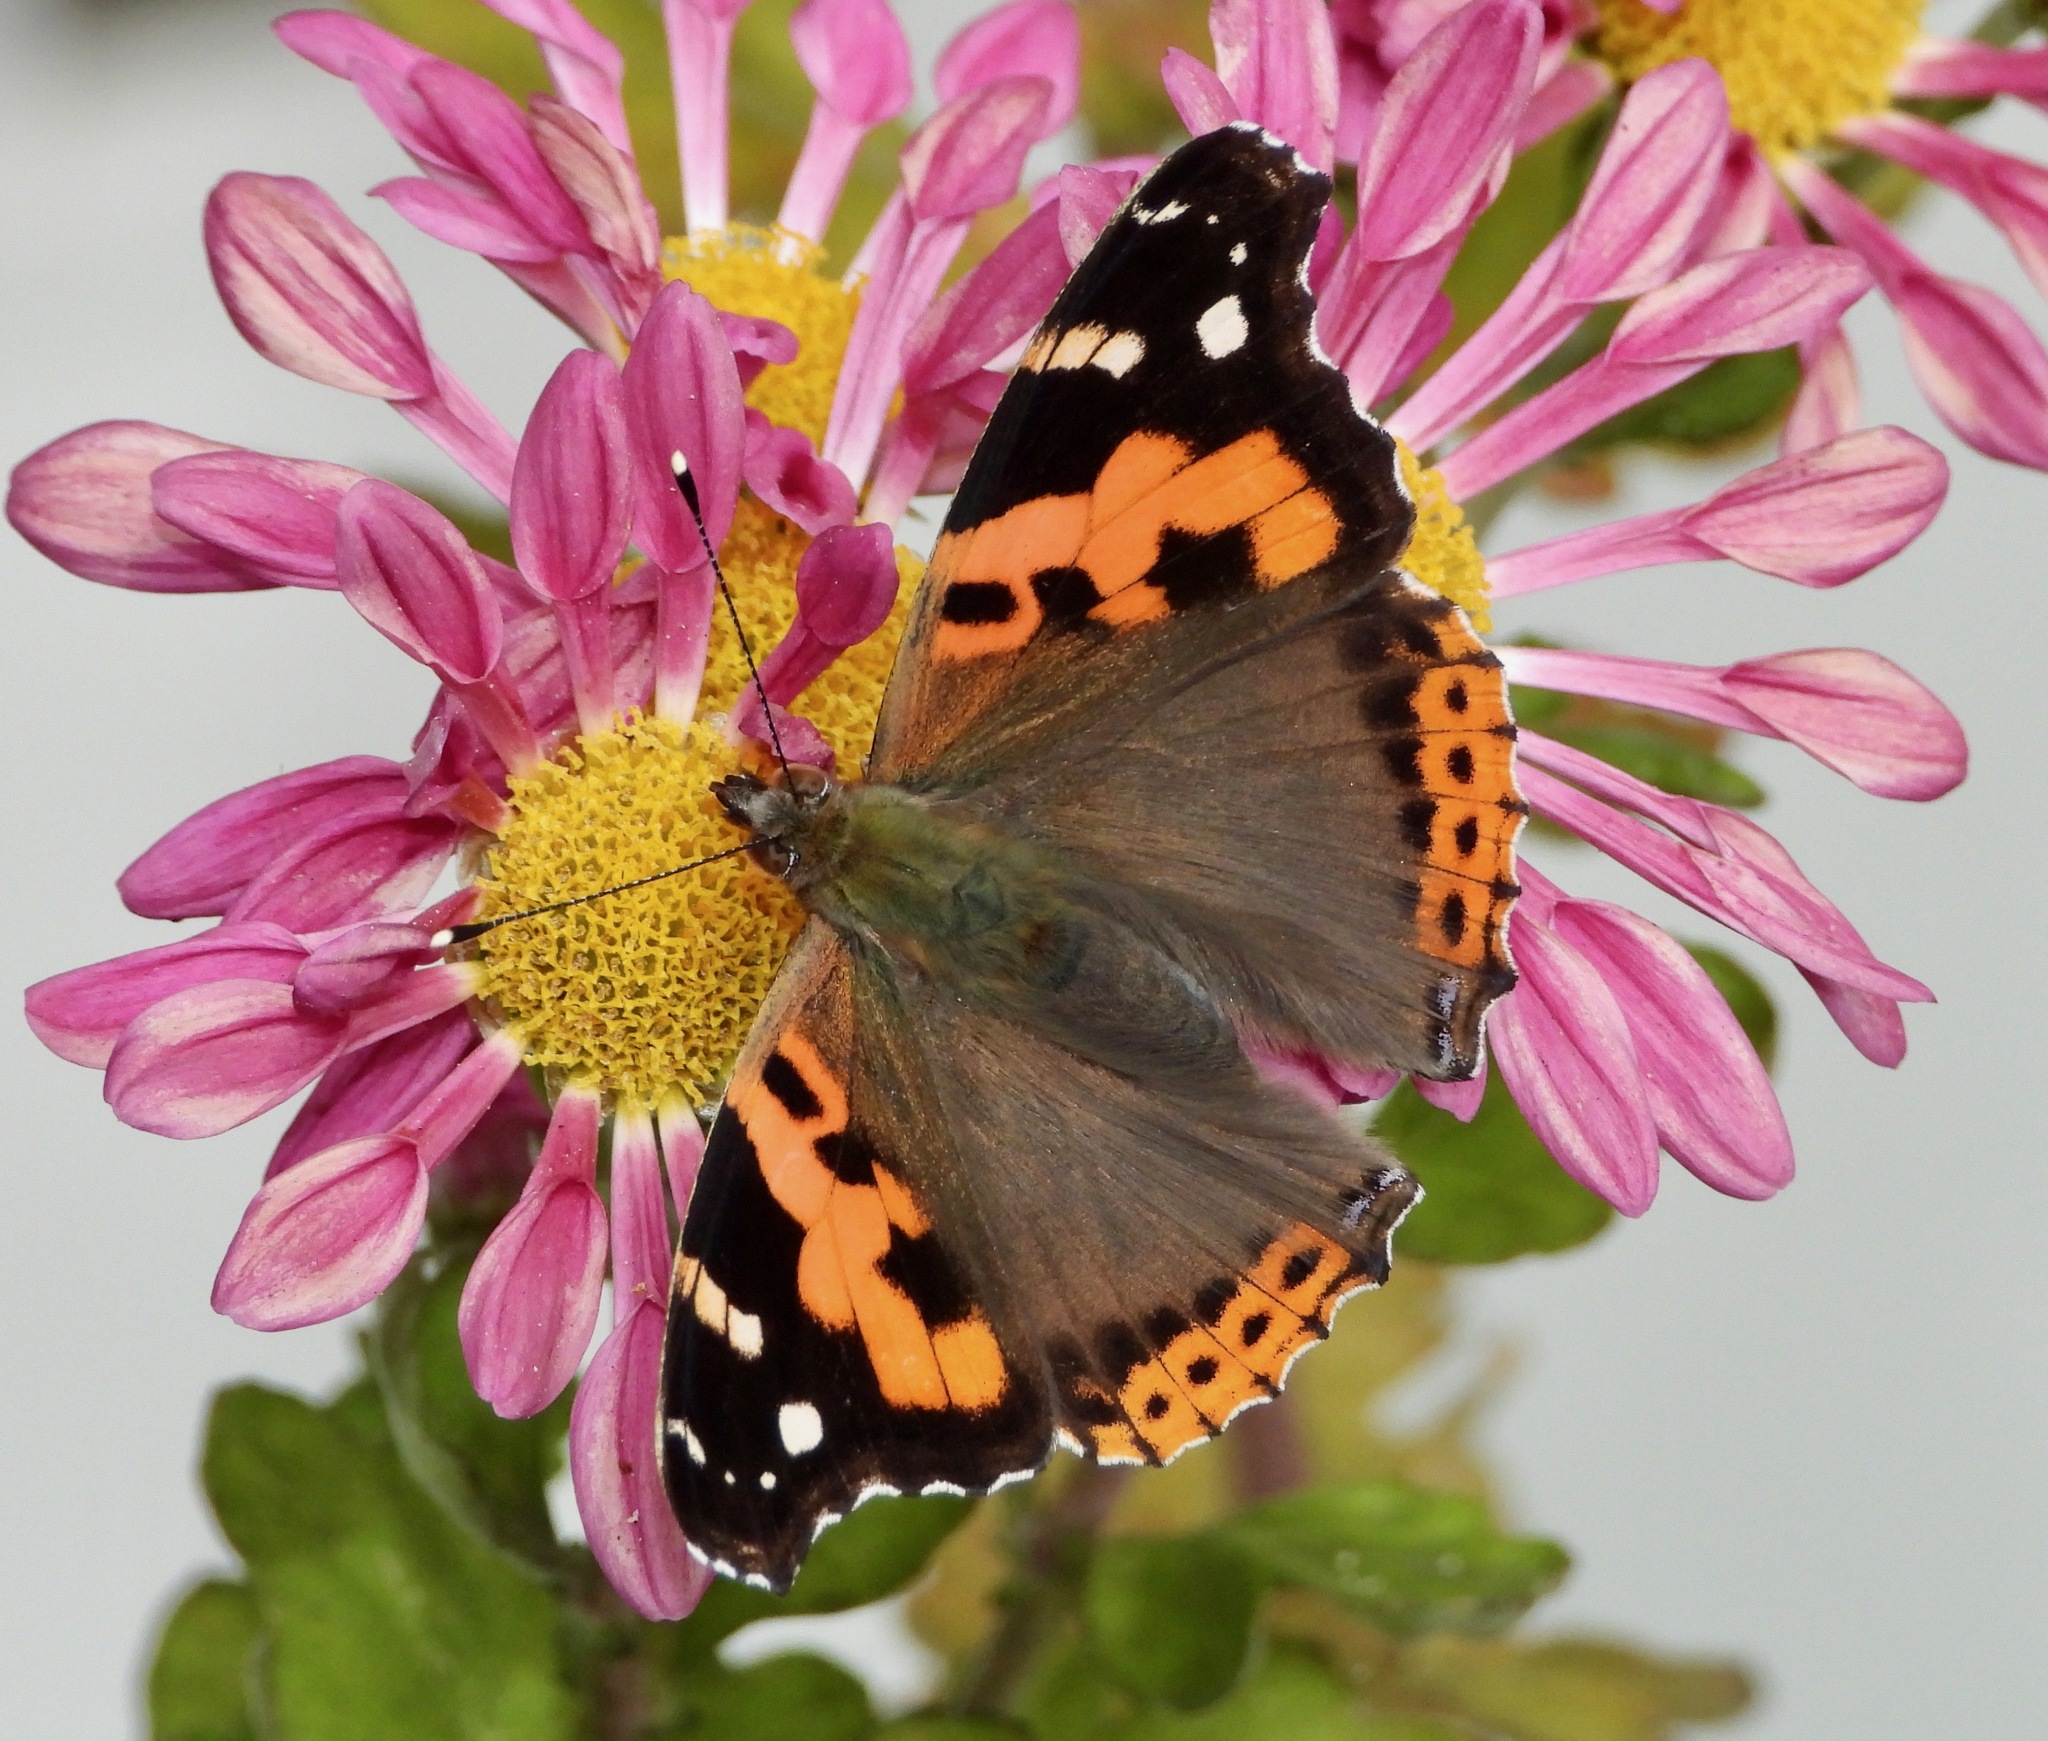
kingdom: Animalia
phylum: Arthropoda
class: Insecta
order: Lepidoptera
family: Nymphalidae
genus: Vanessa
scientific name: Vanessa indica
